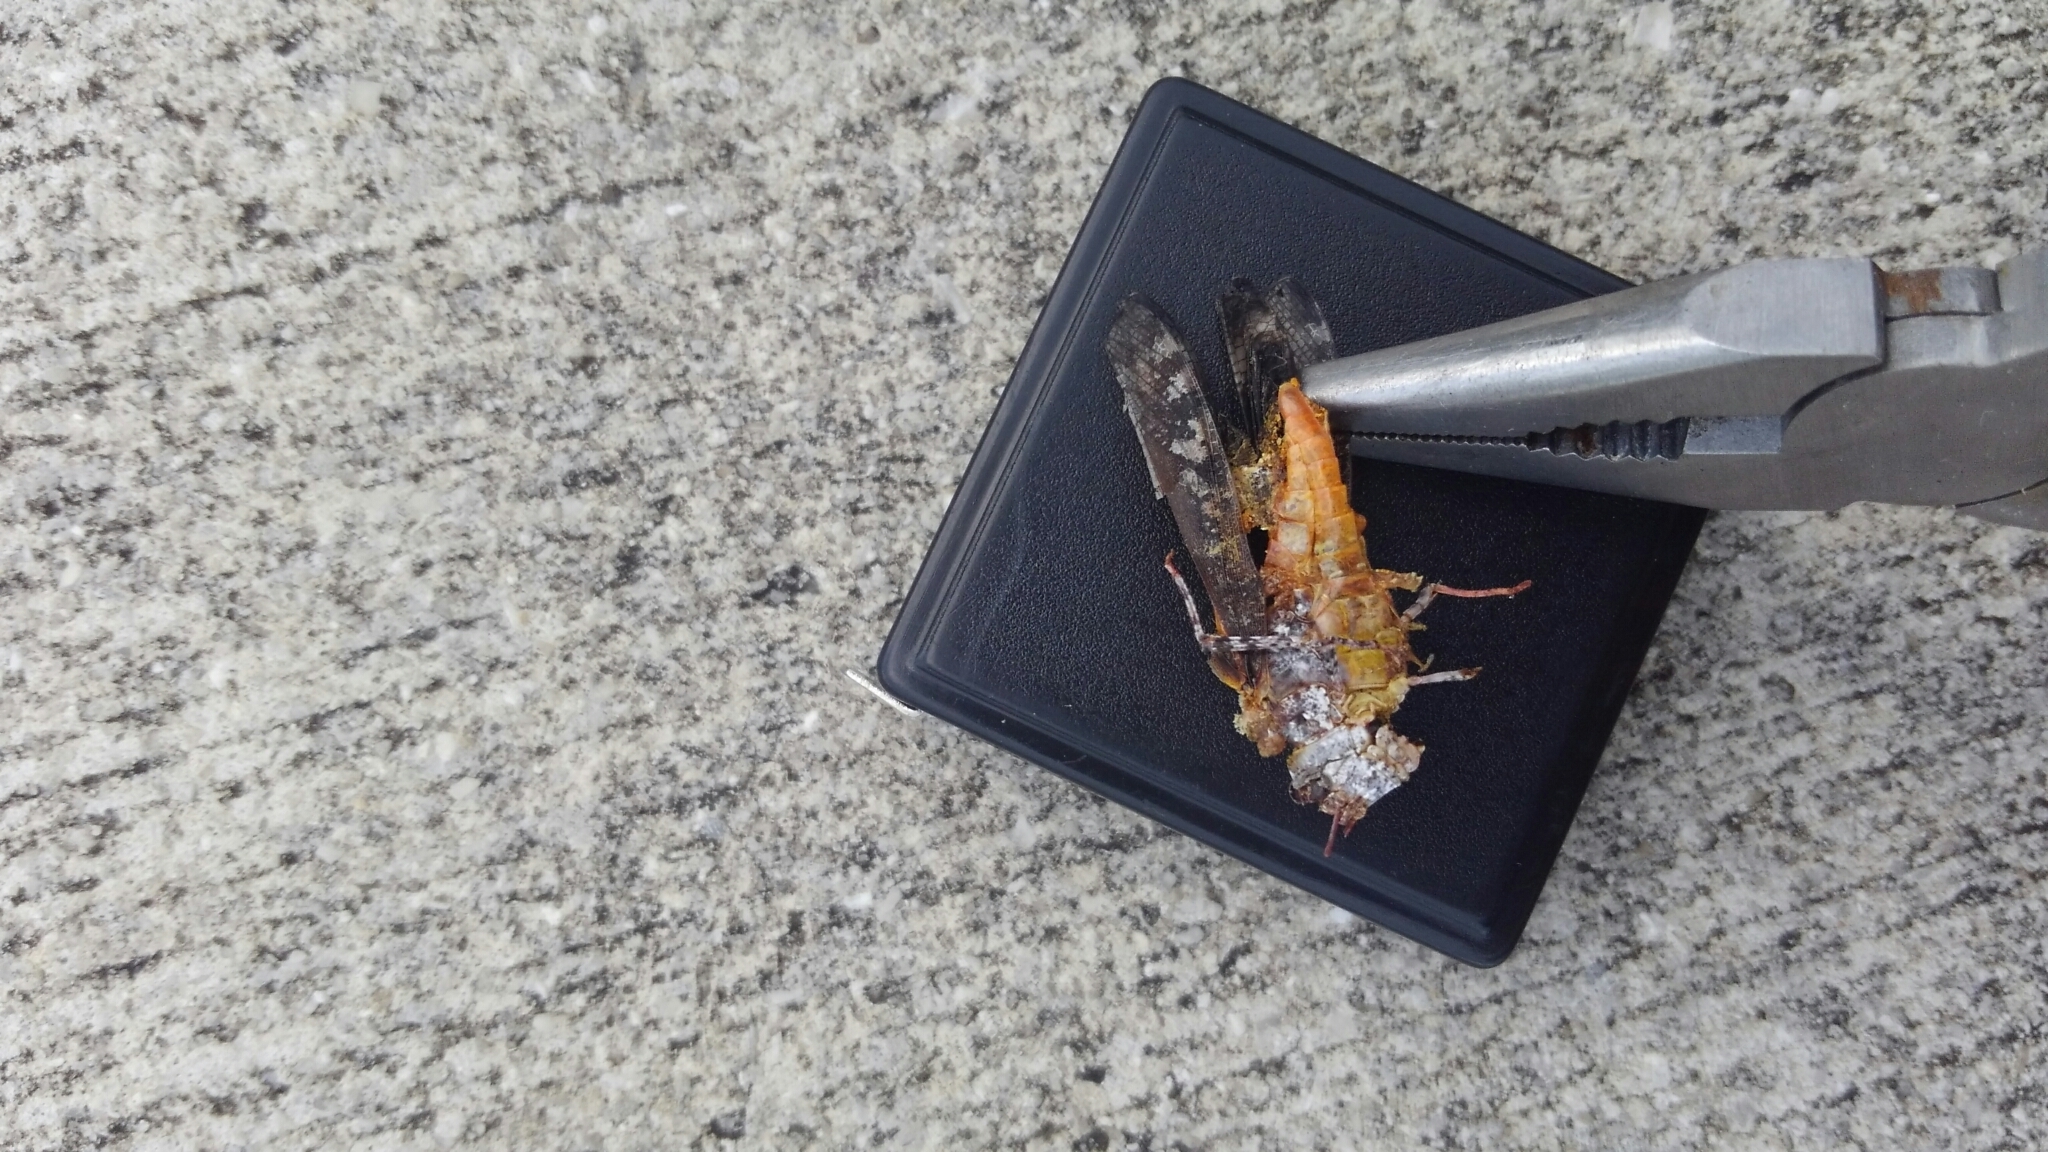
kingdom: Animalia
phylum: Arthropoda
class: Insecta
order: Orthoptera
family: Acrididae
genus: Spharagemon
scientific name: Spharagemon marmoratum
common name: Marbled grasshopper
